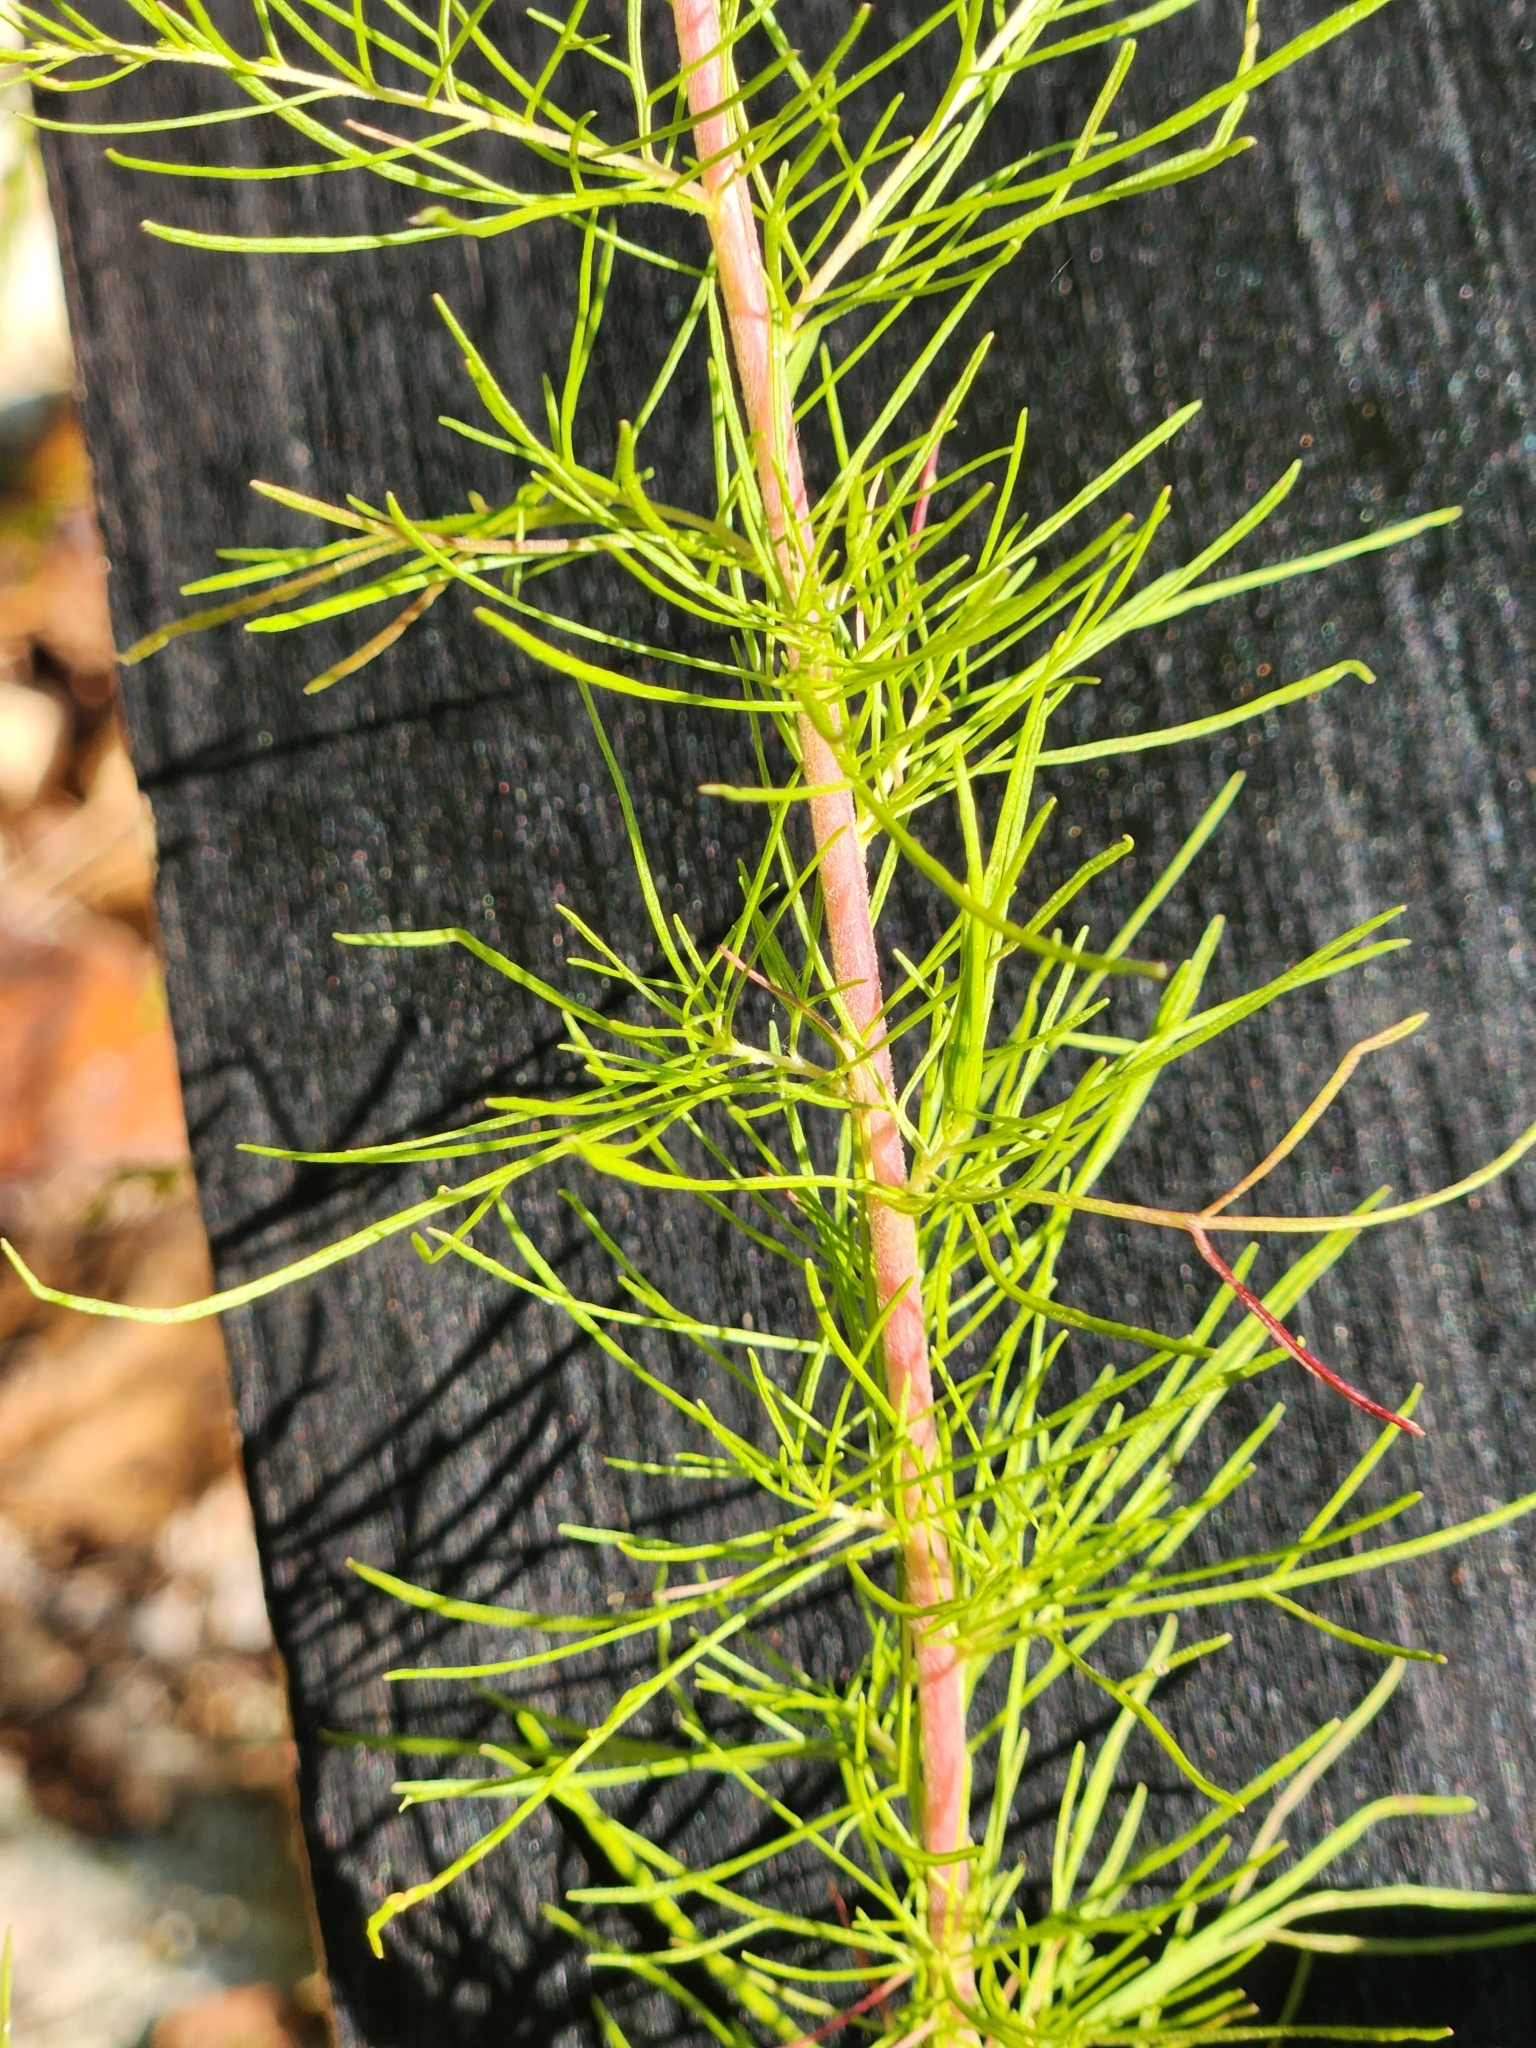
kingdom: Plantae
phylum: Tracheophyta
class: Magnoliopsida
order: Asterales
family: Asteraceae
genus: Eupatorium
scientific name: Eupatorium capillifolium
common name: Dog-fennel
